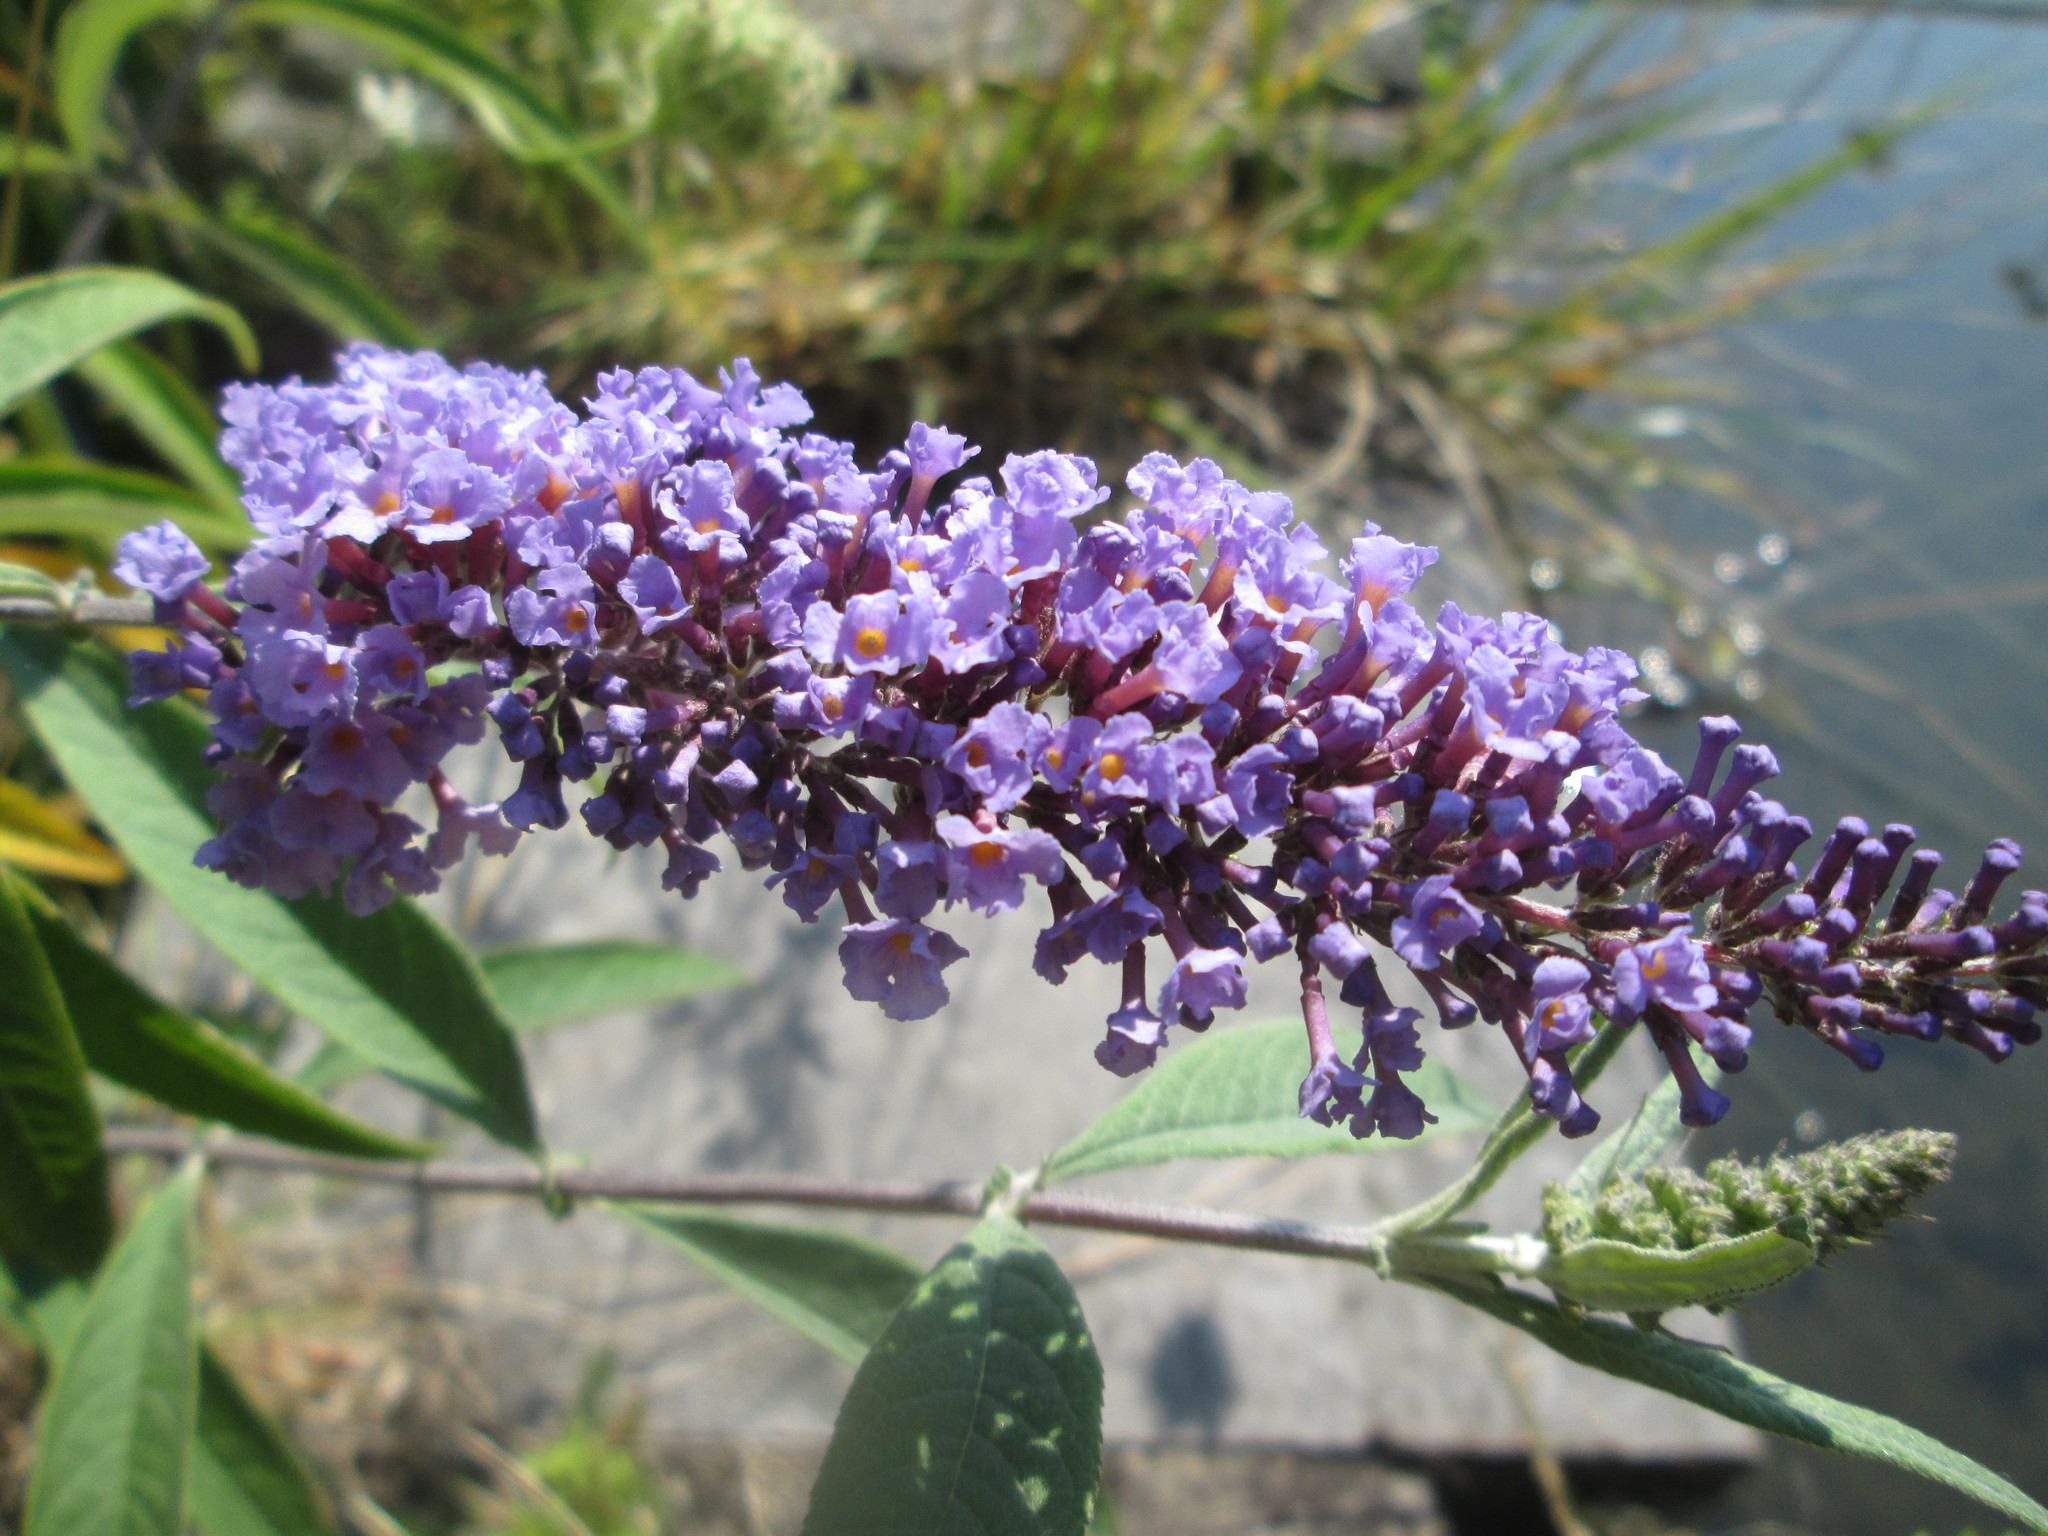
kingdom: Plantae
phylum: Tracheophyta
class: Magnoliopsida
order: Lamiales
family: Scrophulariaceae
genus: Buddleja
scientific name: Buddleja davidii
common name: Butterfly-bush
